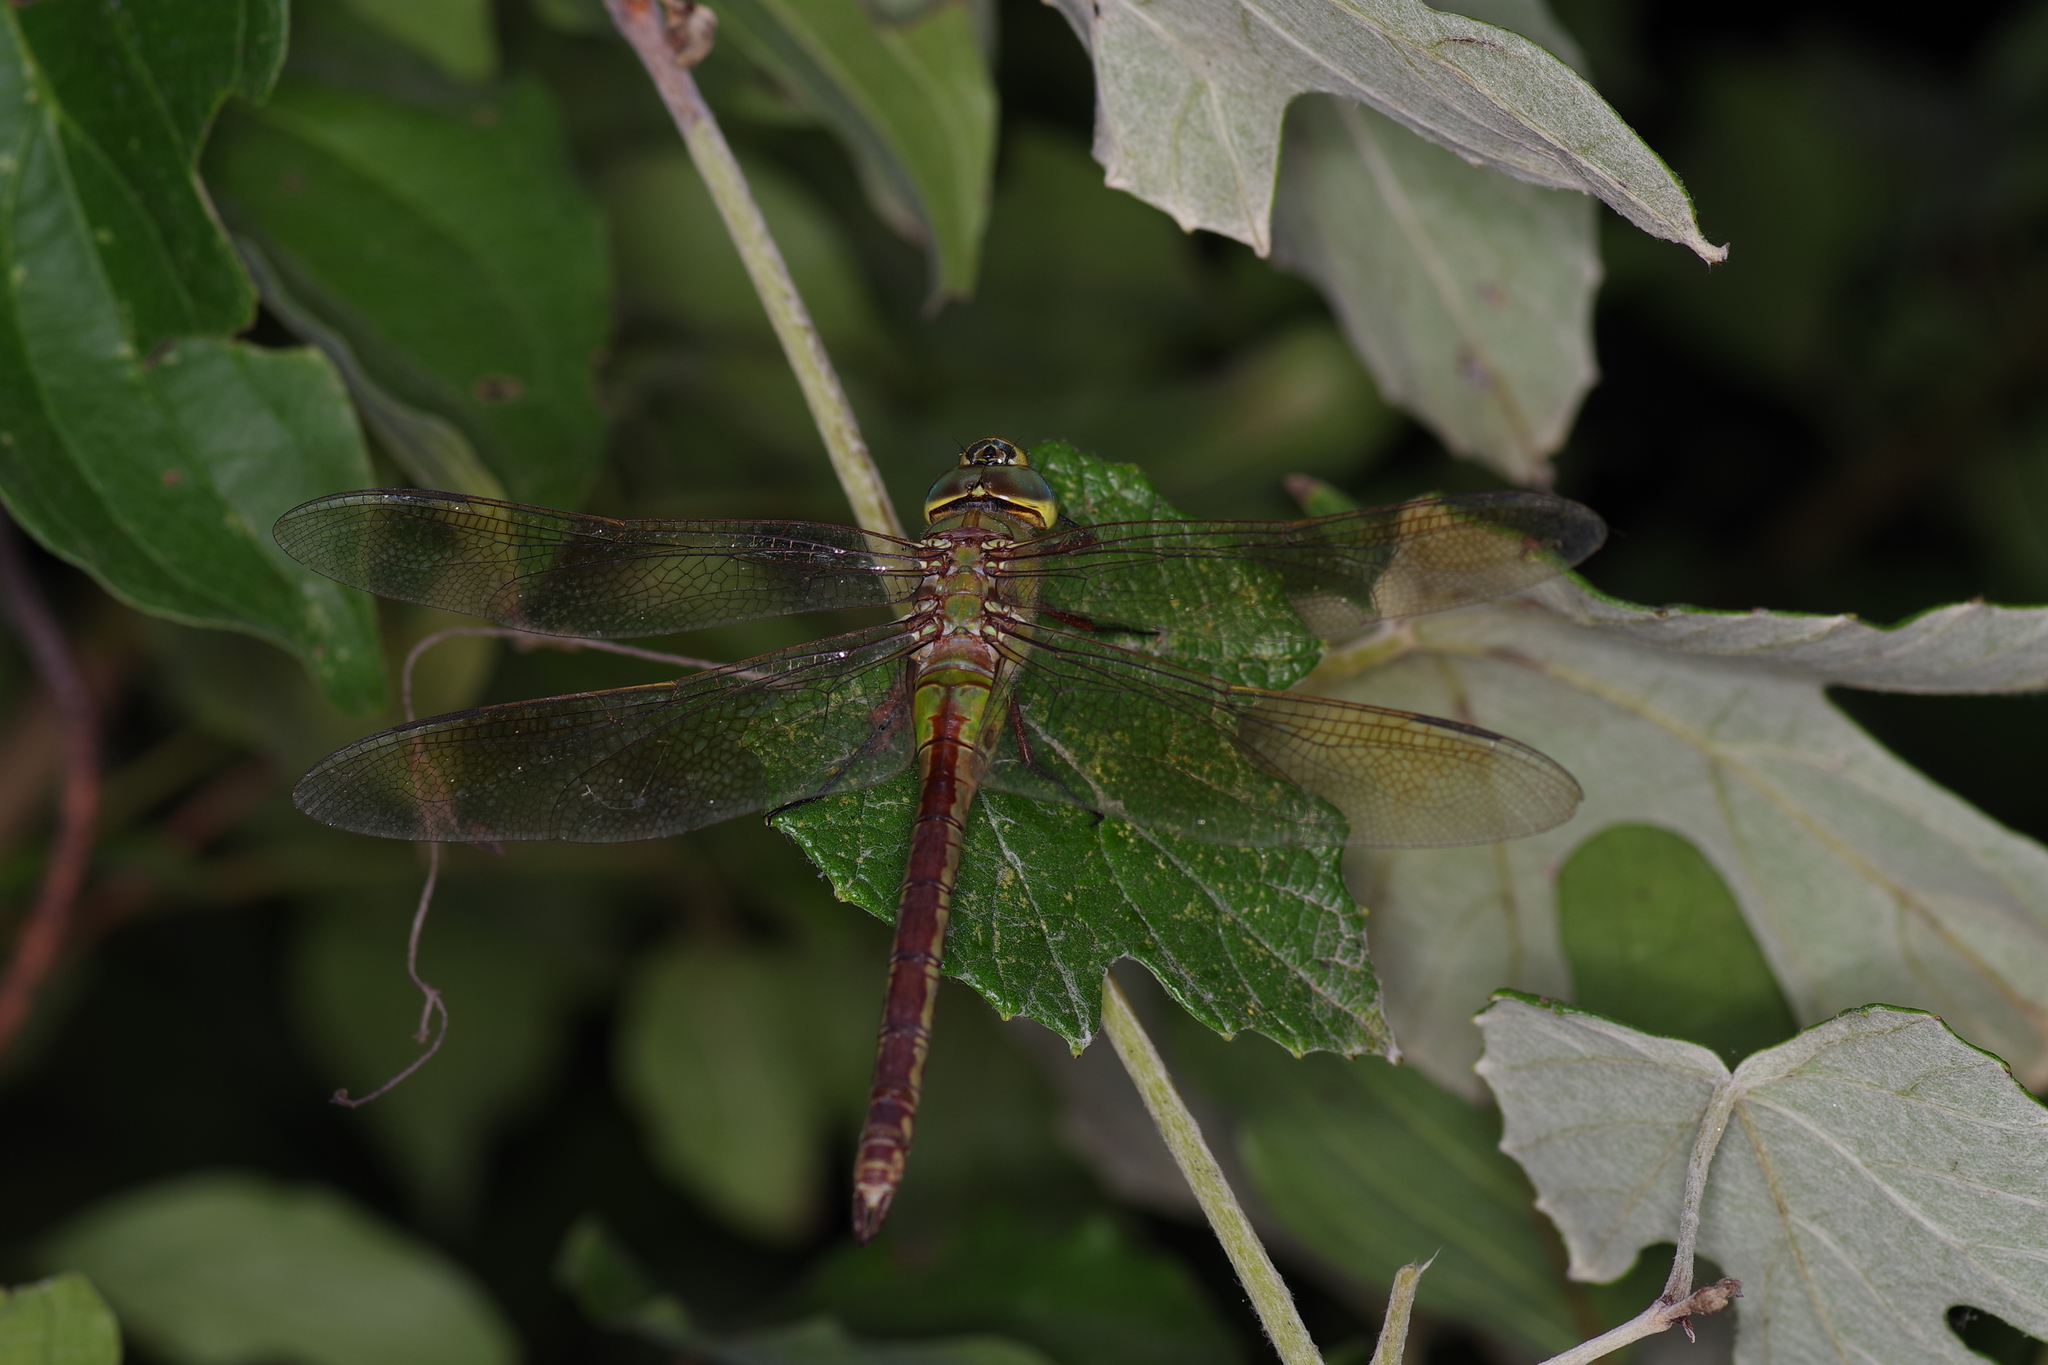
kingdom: Animalia
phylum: Arthropoda
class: Insecta
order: Odonata
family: Aeshnidae
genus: Anax
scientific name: Anax junius
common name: Common green darner
